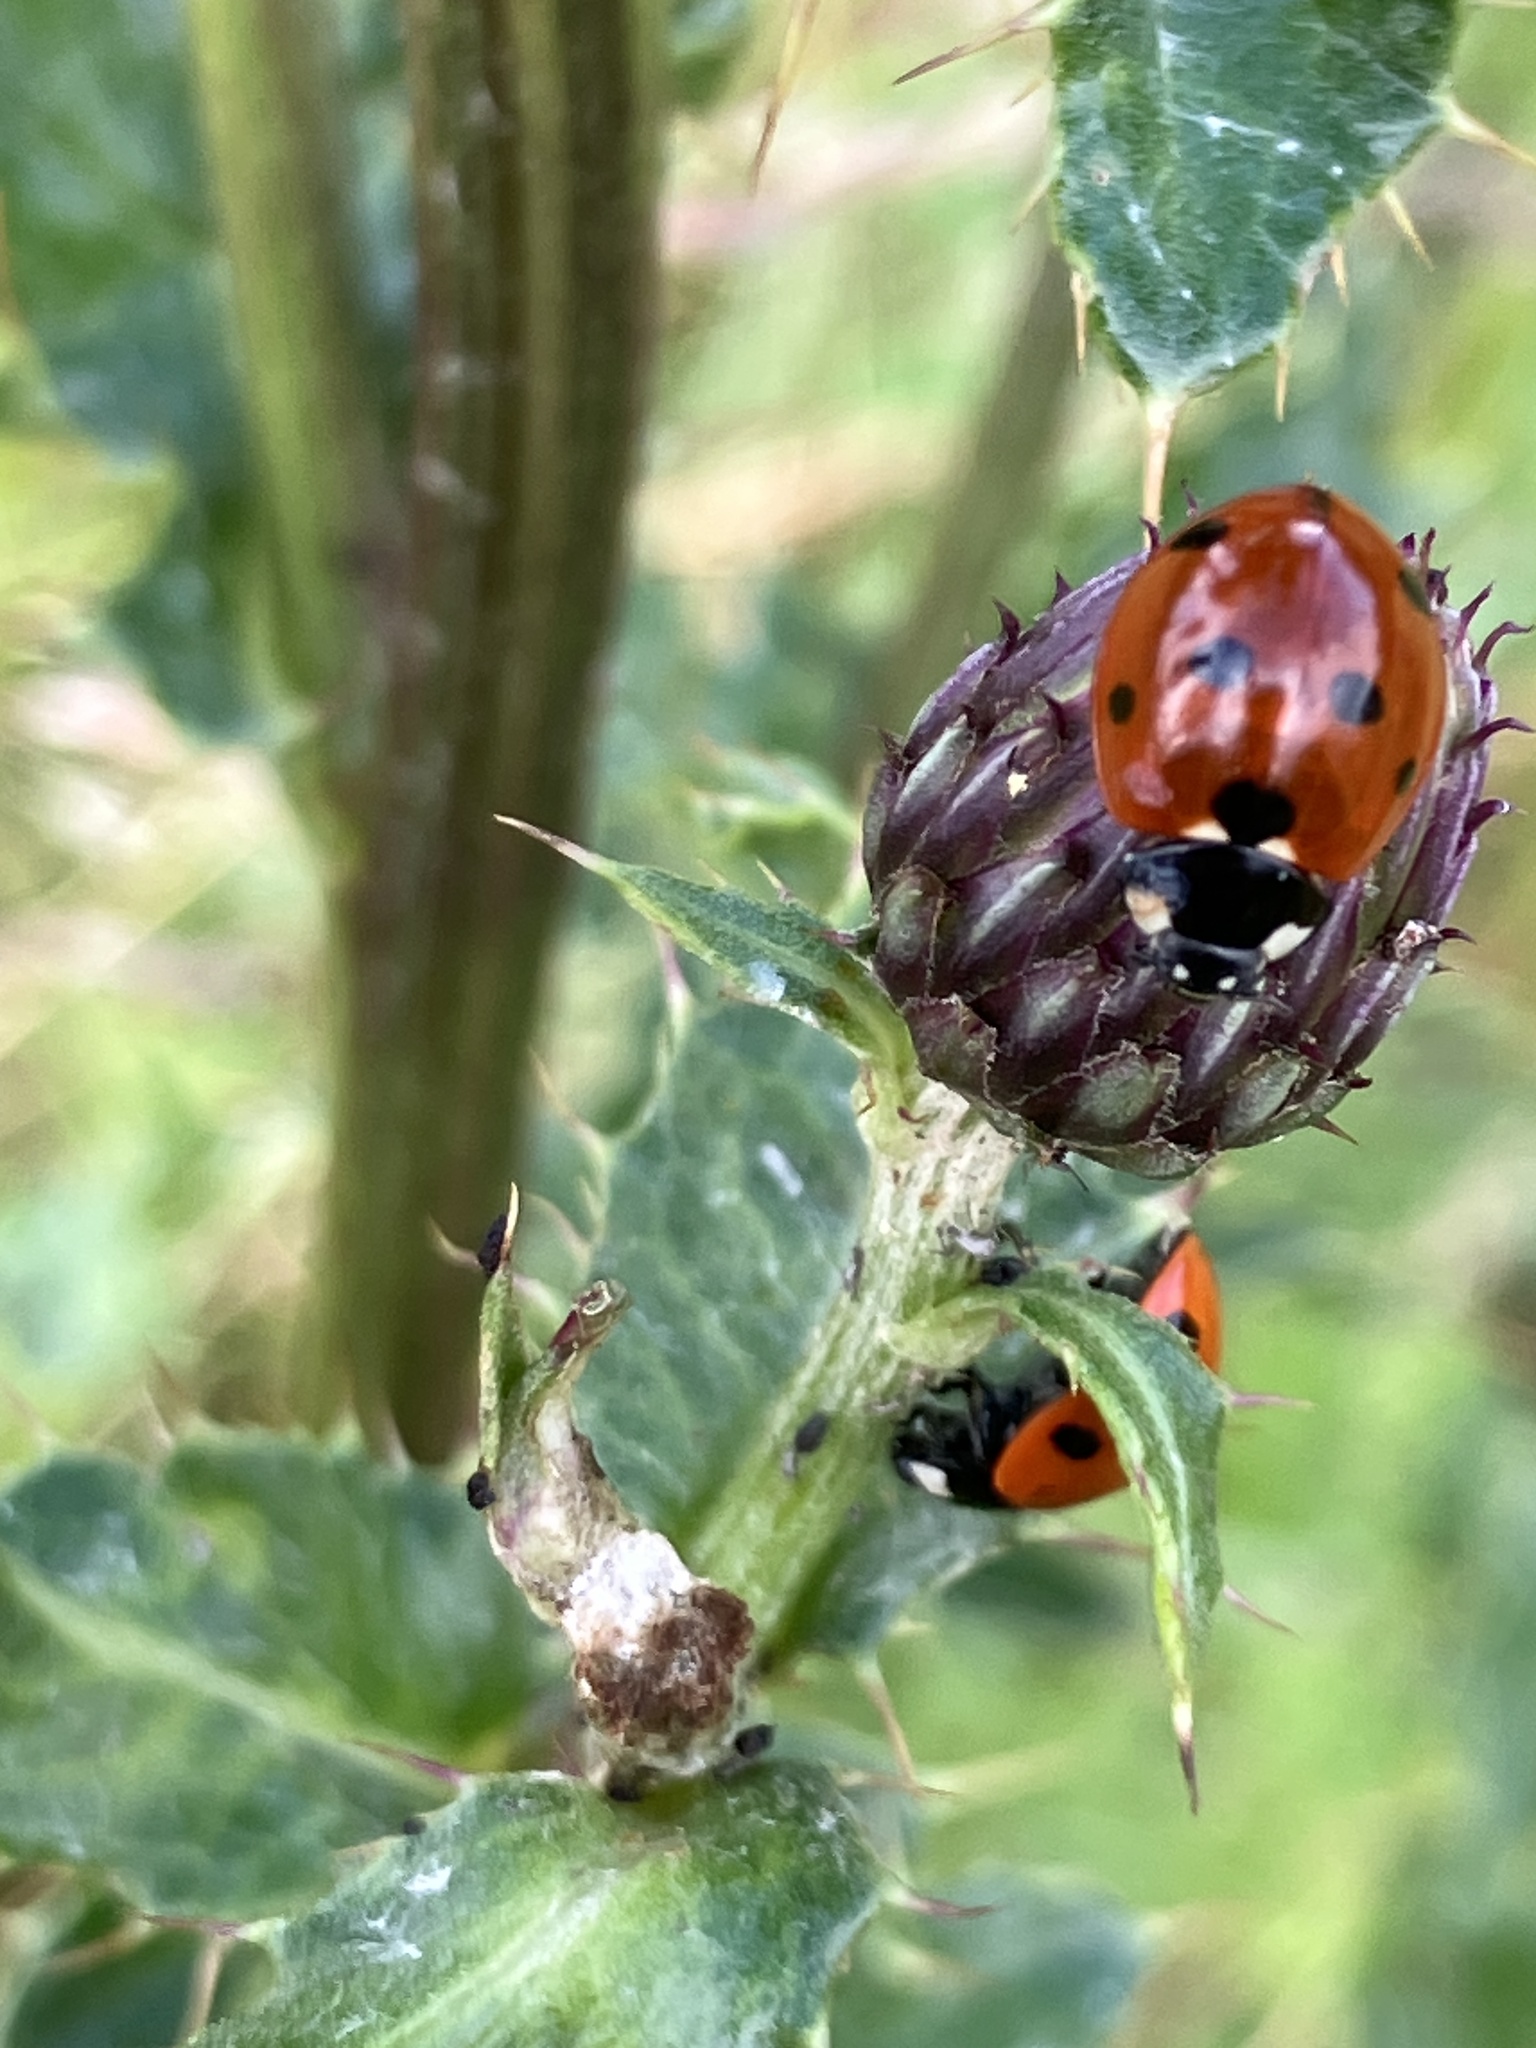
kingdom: Animalia
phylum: Arthropoda
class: Insecta
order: Coleoptera
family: Coccinellidae
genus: Coccinella
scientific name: Coccinella septempunctata
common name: Sevenspotted lady beetle
